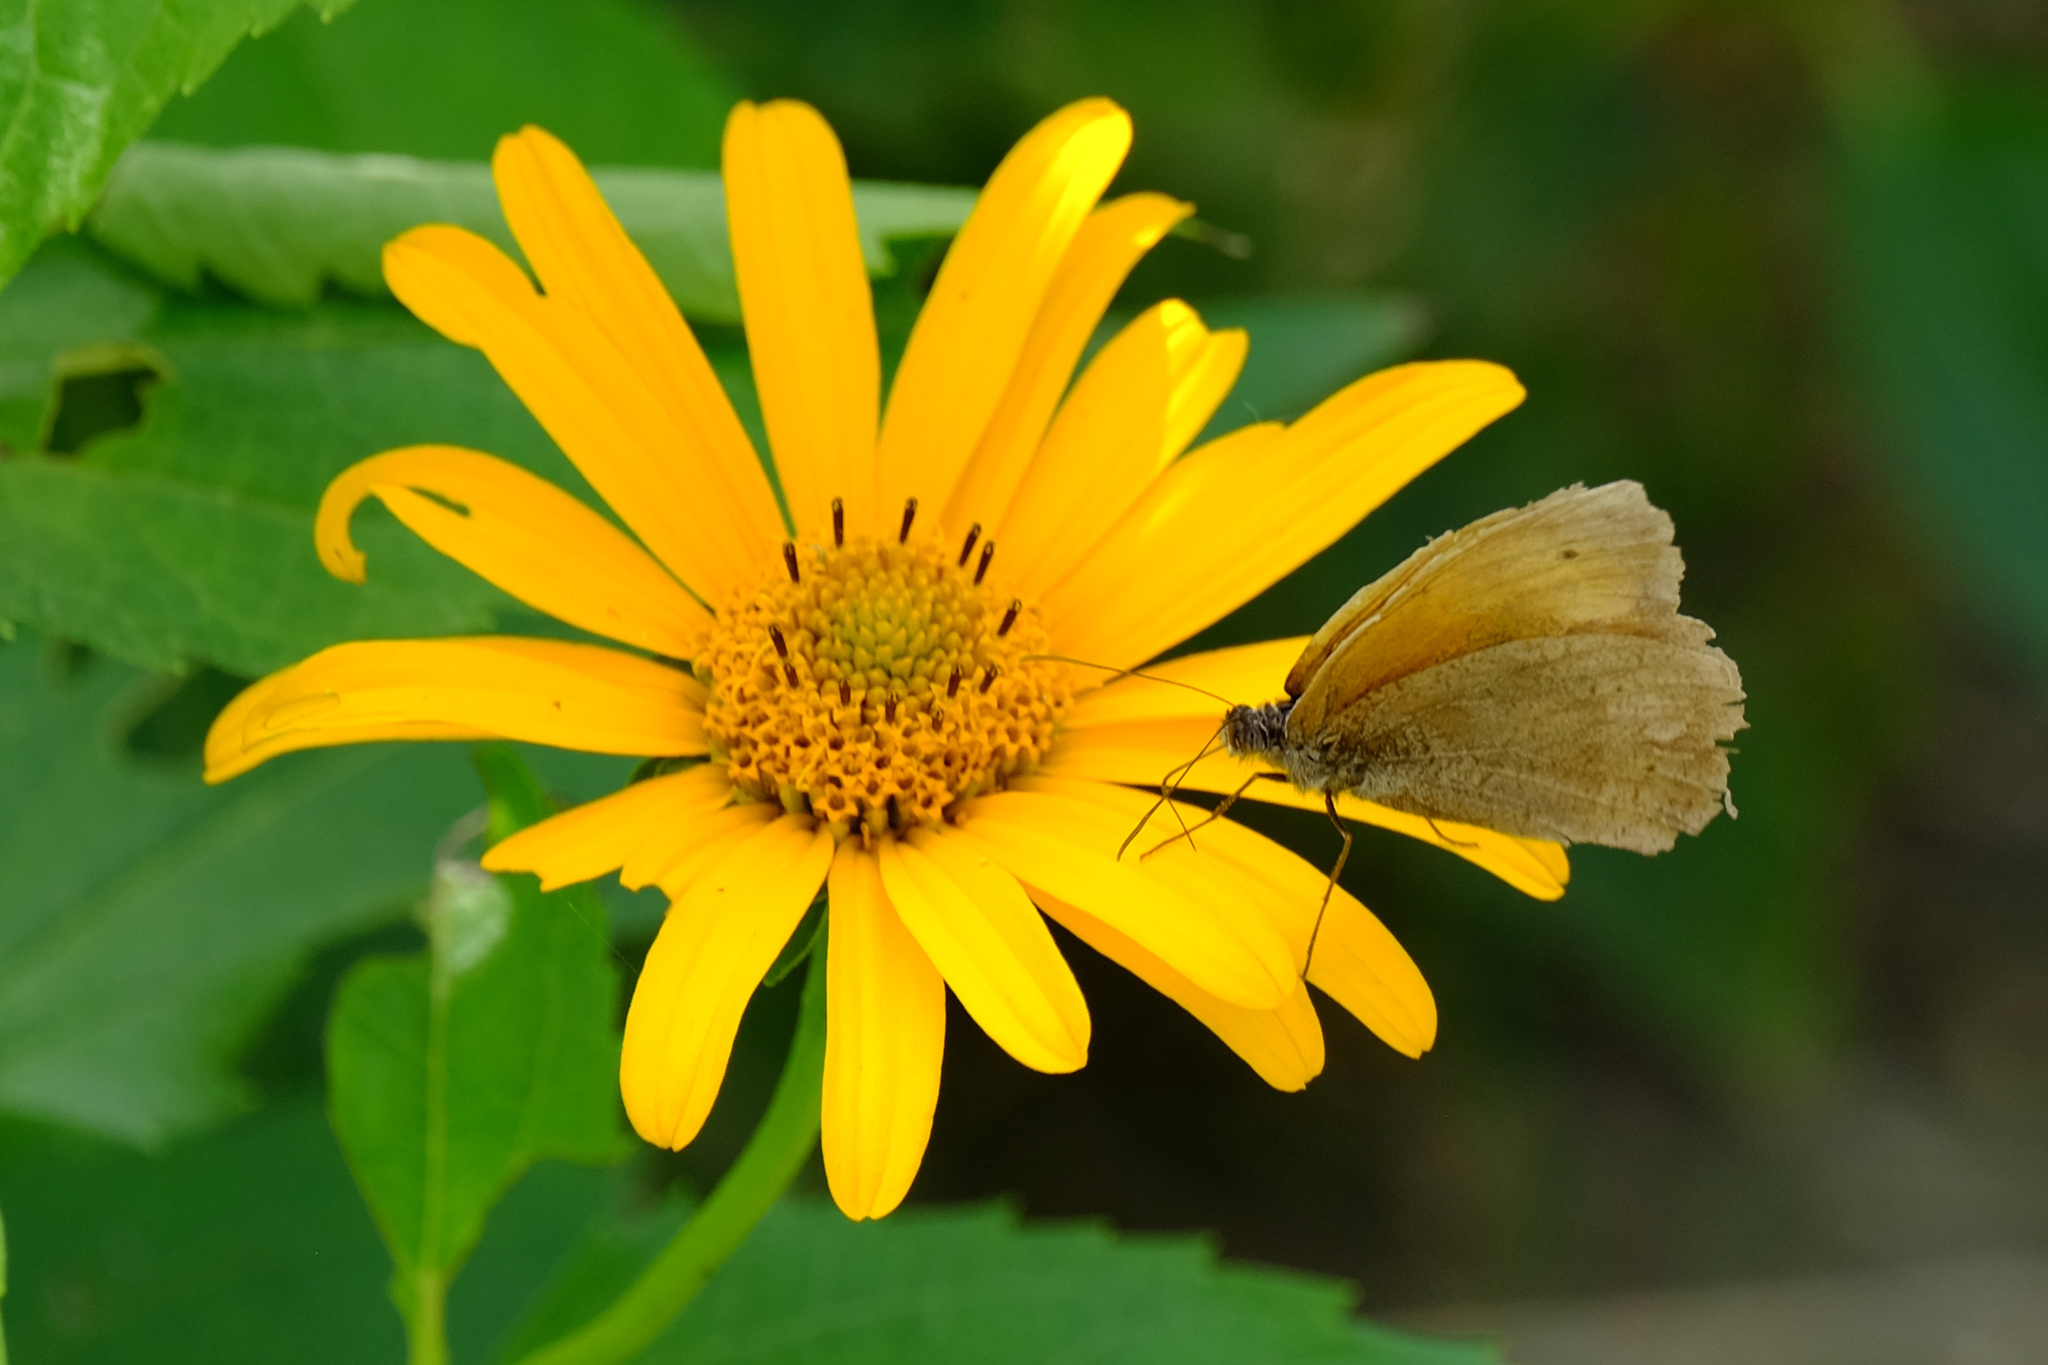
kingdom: Animalia
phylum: Arthropoda
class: Insecta
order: Lepidoptera
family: Nymphalidae
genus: Maniola
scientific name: Maniola jurtina
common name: Meadow brown
